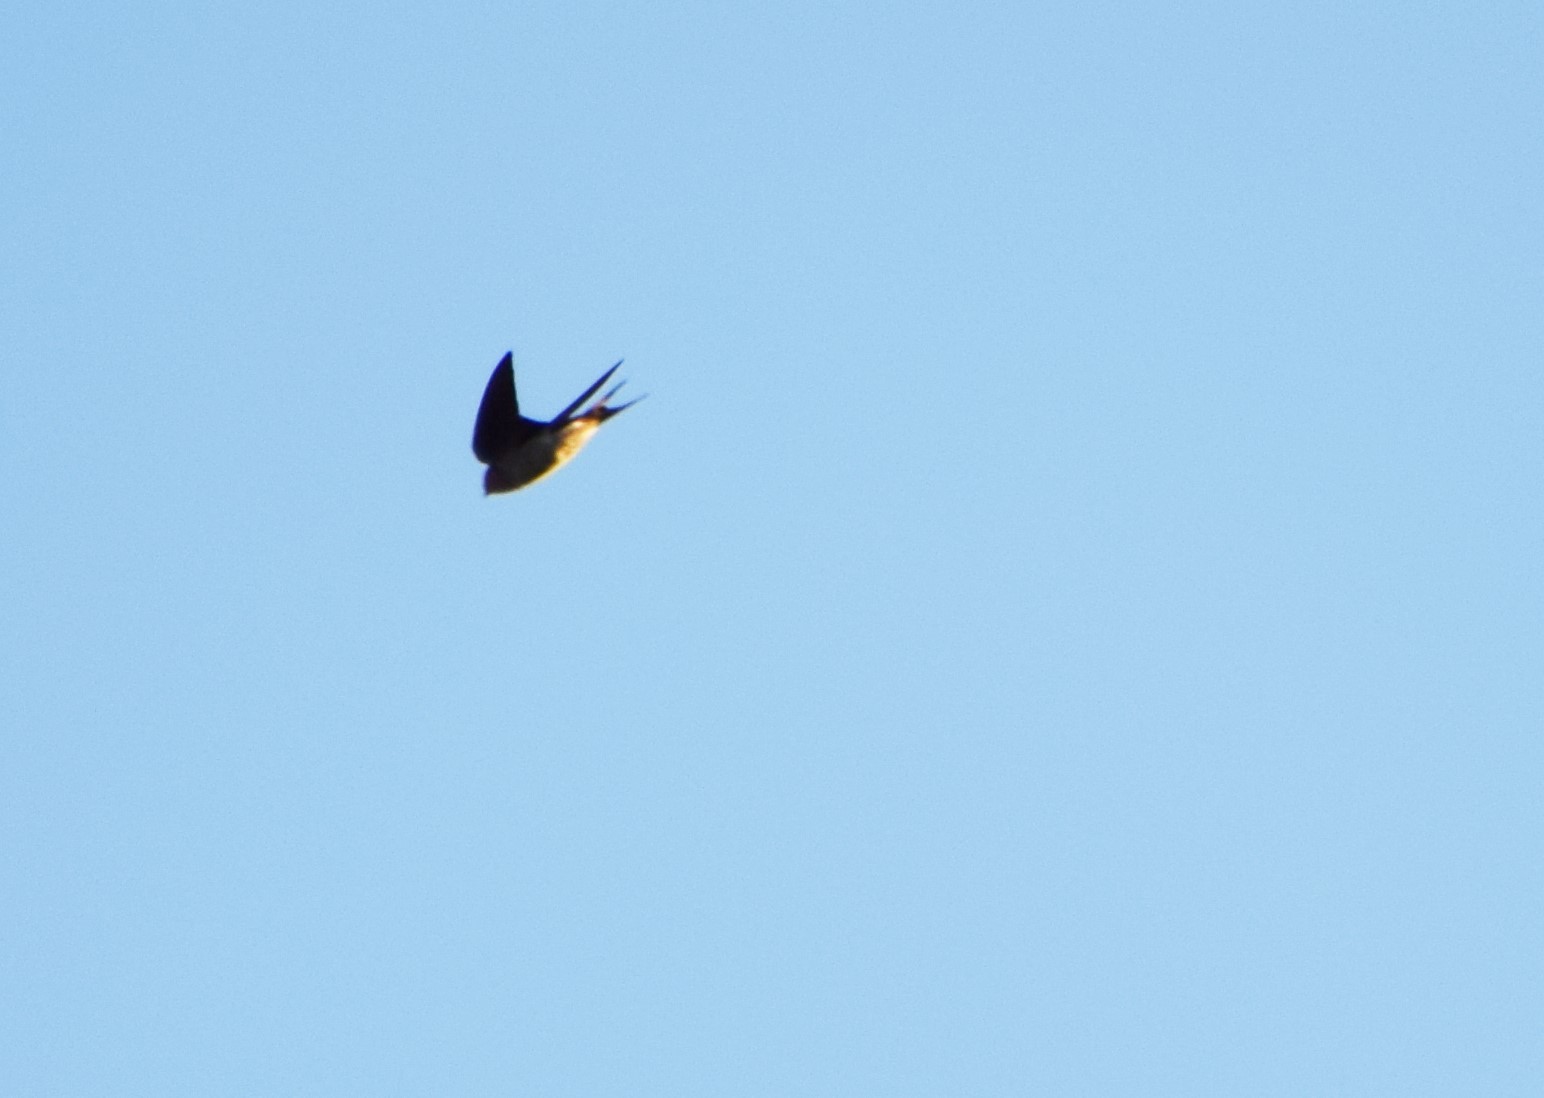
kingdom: Animalia
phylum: Chordata
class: Aves
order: Passeriformes
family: Hirundinidae
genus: Hirundo
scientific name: Hirundo neoxena
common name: Welcome swallow
